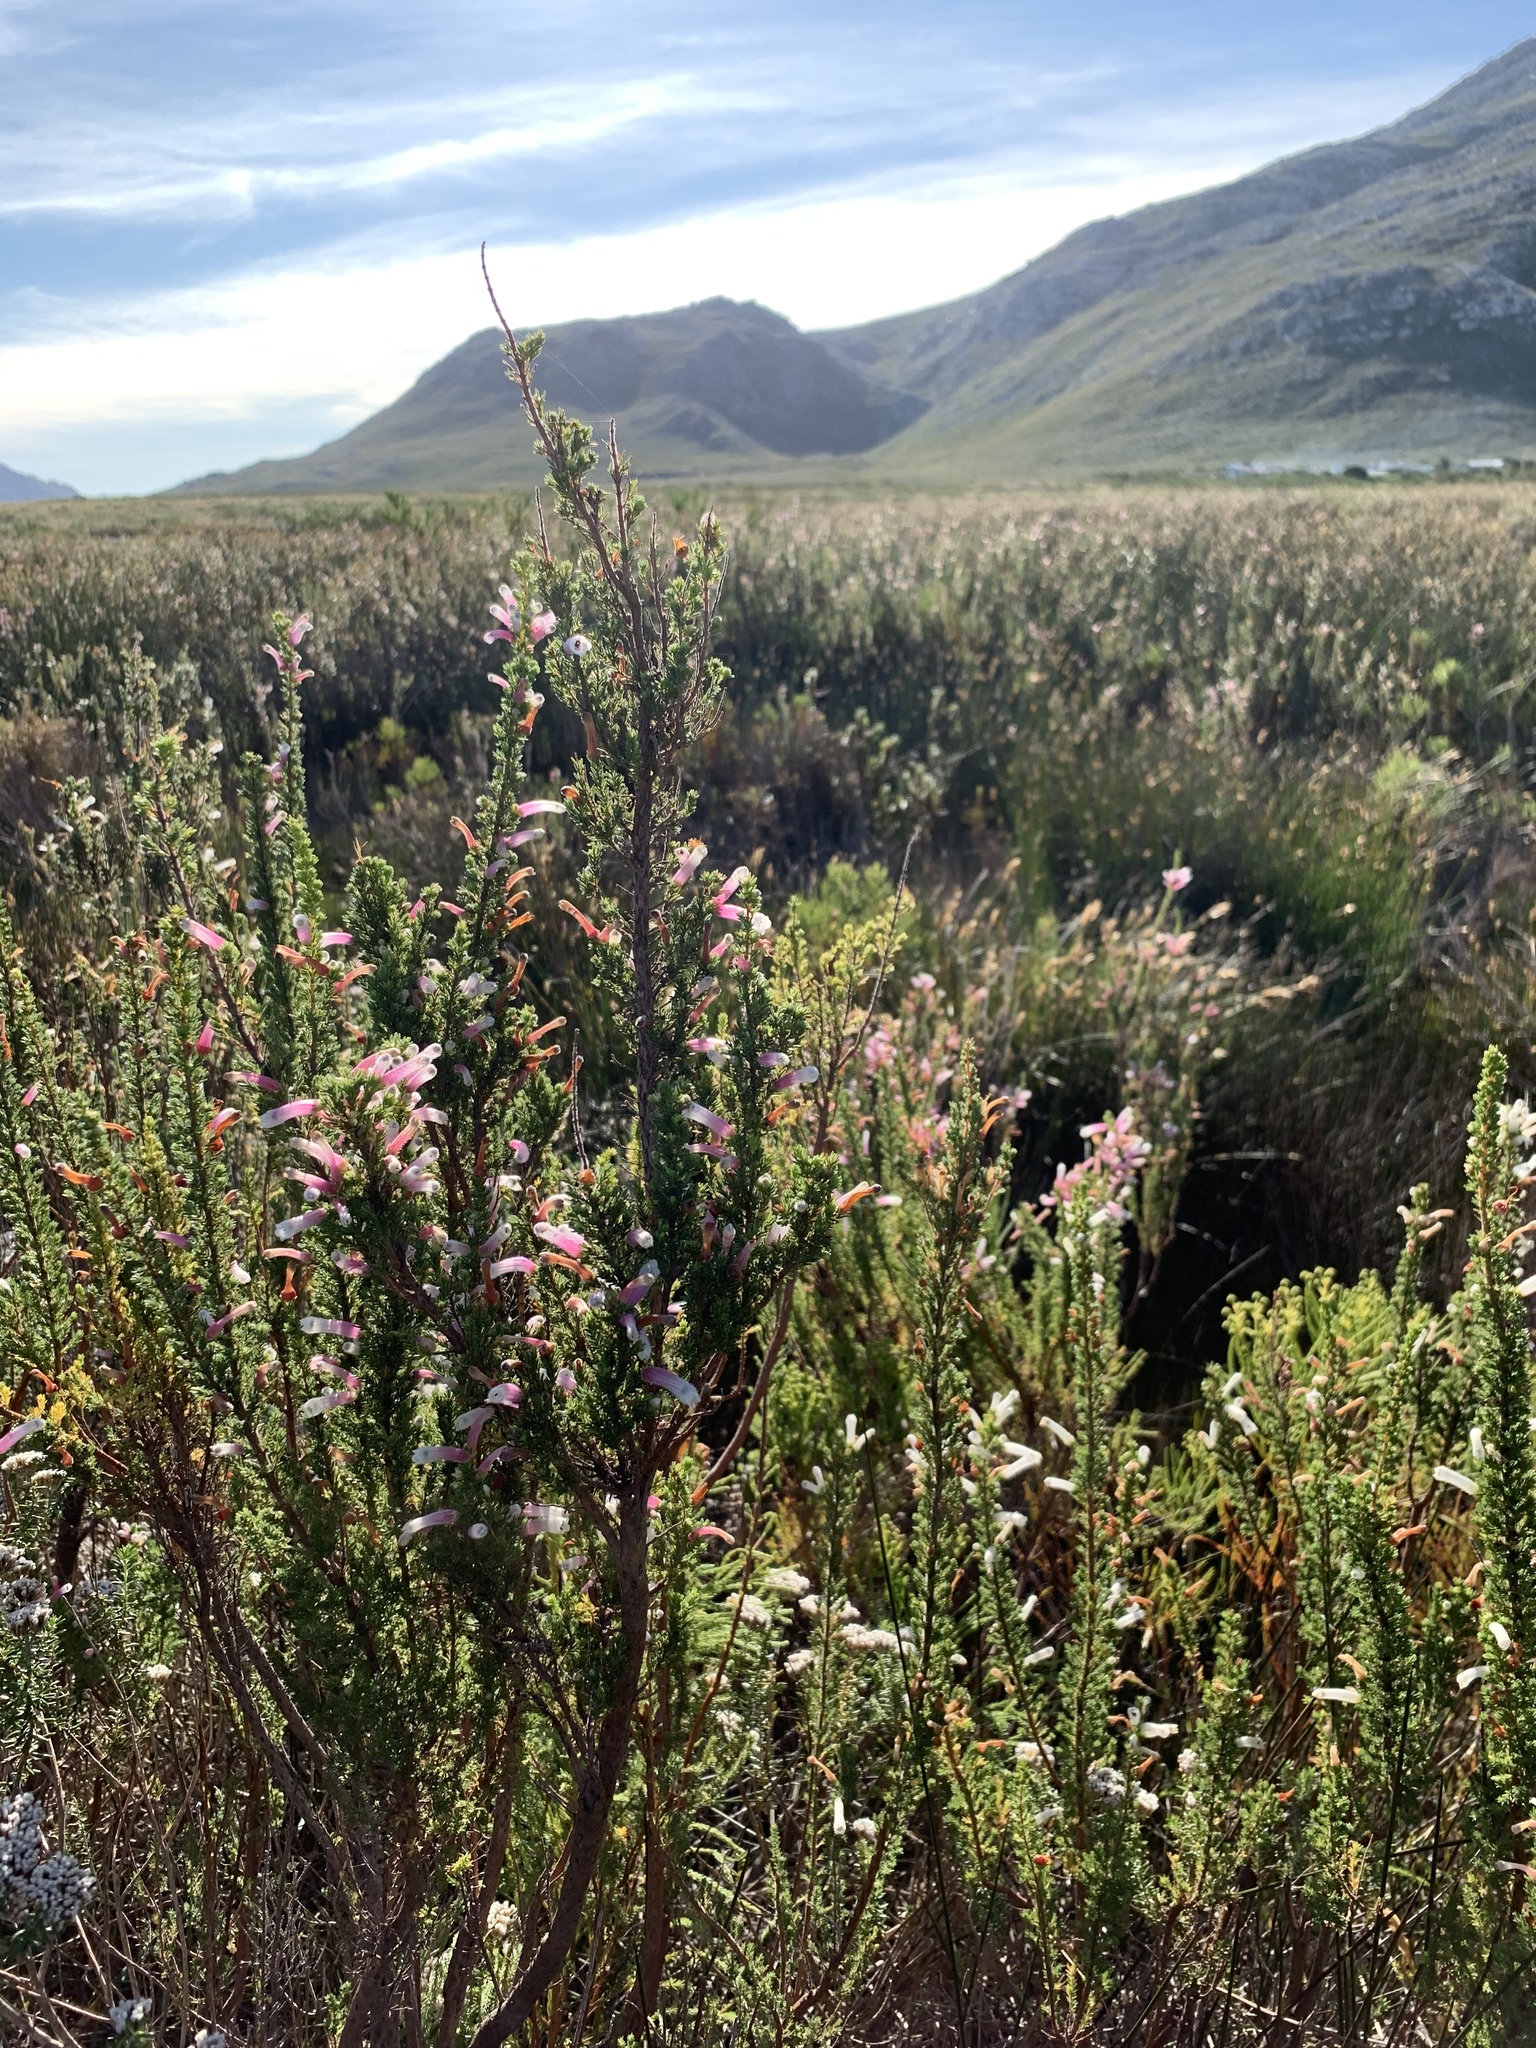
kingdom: Plantae
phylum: Tracheophyta
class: Magnoliopsida
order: Ericales
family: Ericaceae
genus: Erica
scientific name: Erica perspicua
